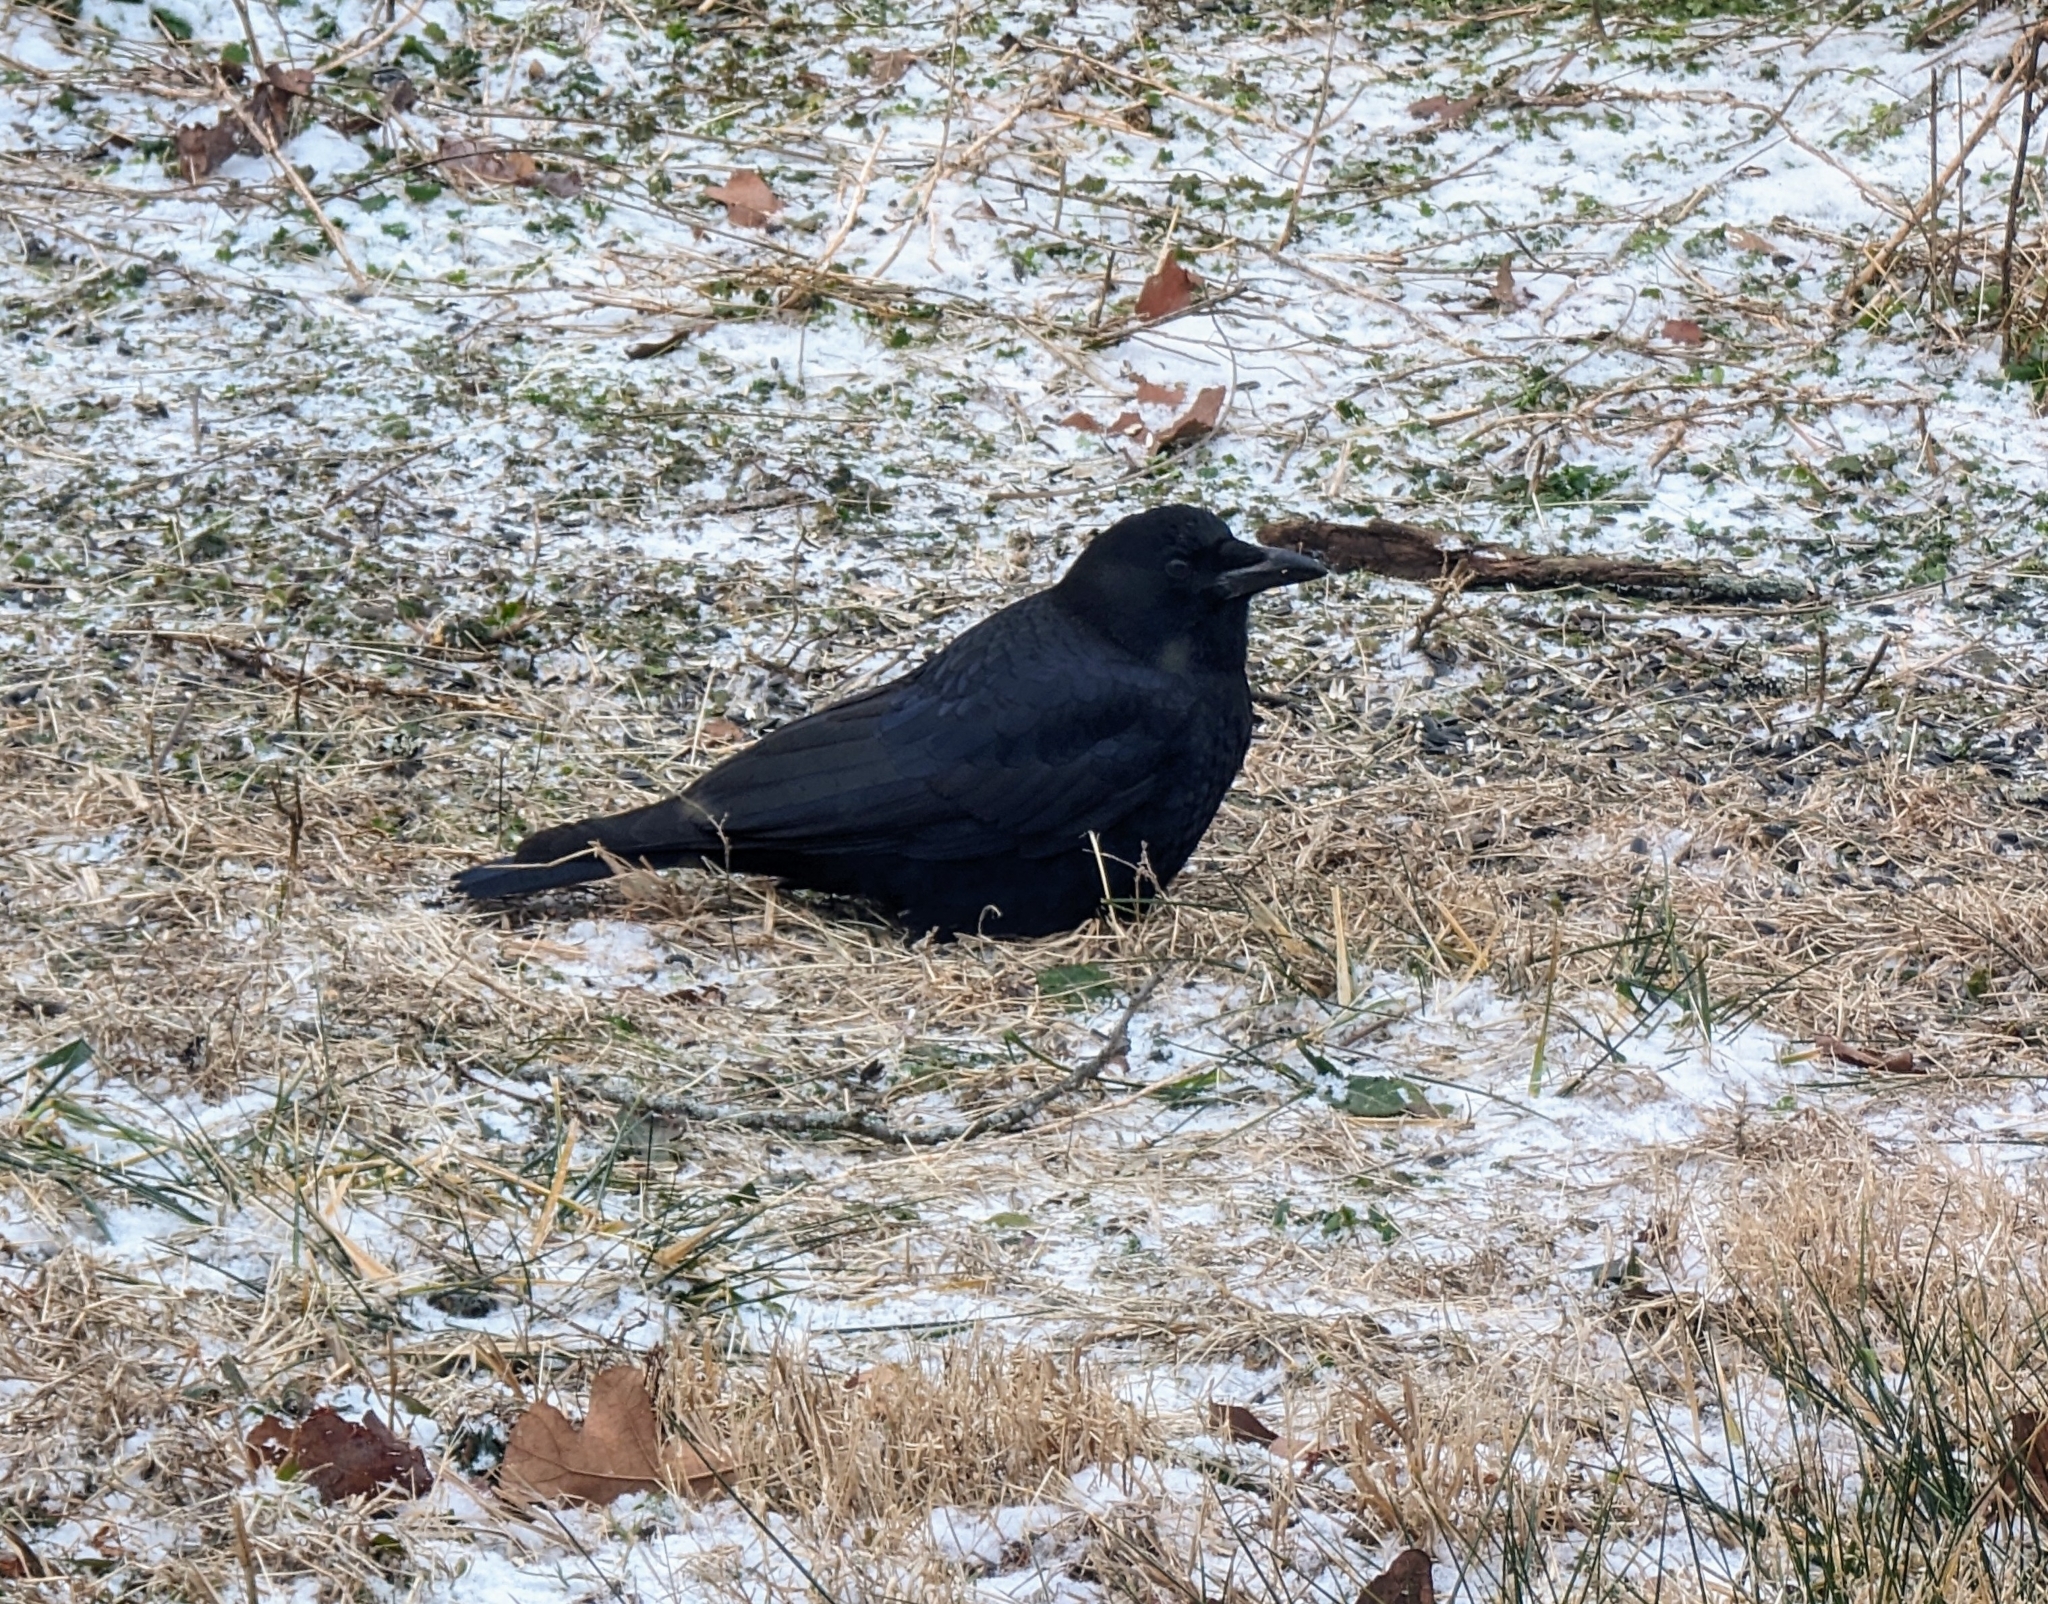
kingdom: Animalia
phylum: Chordata
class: Aves
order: Passeriformes
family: Corvidae
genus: Corvus
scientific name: Corvus brachyrhynchos
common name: American crow
